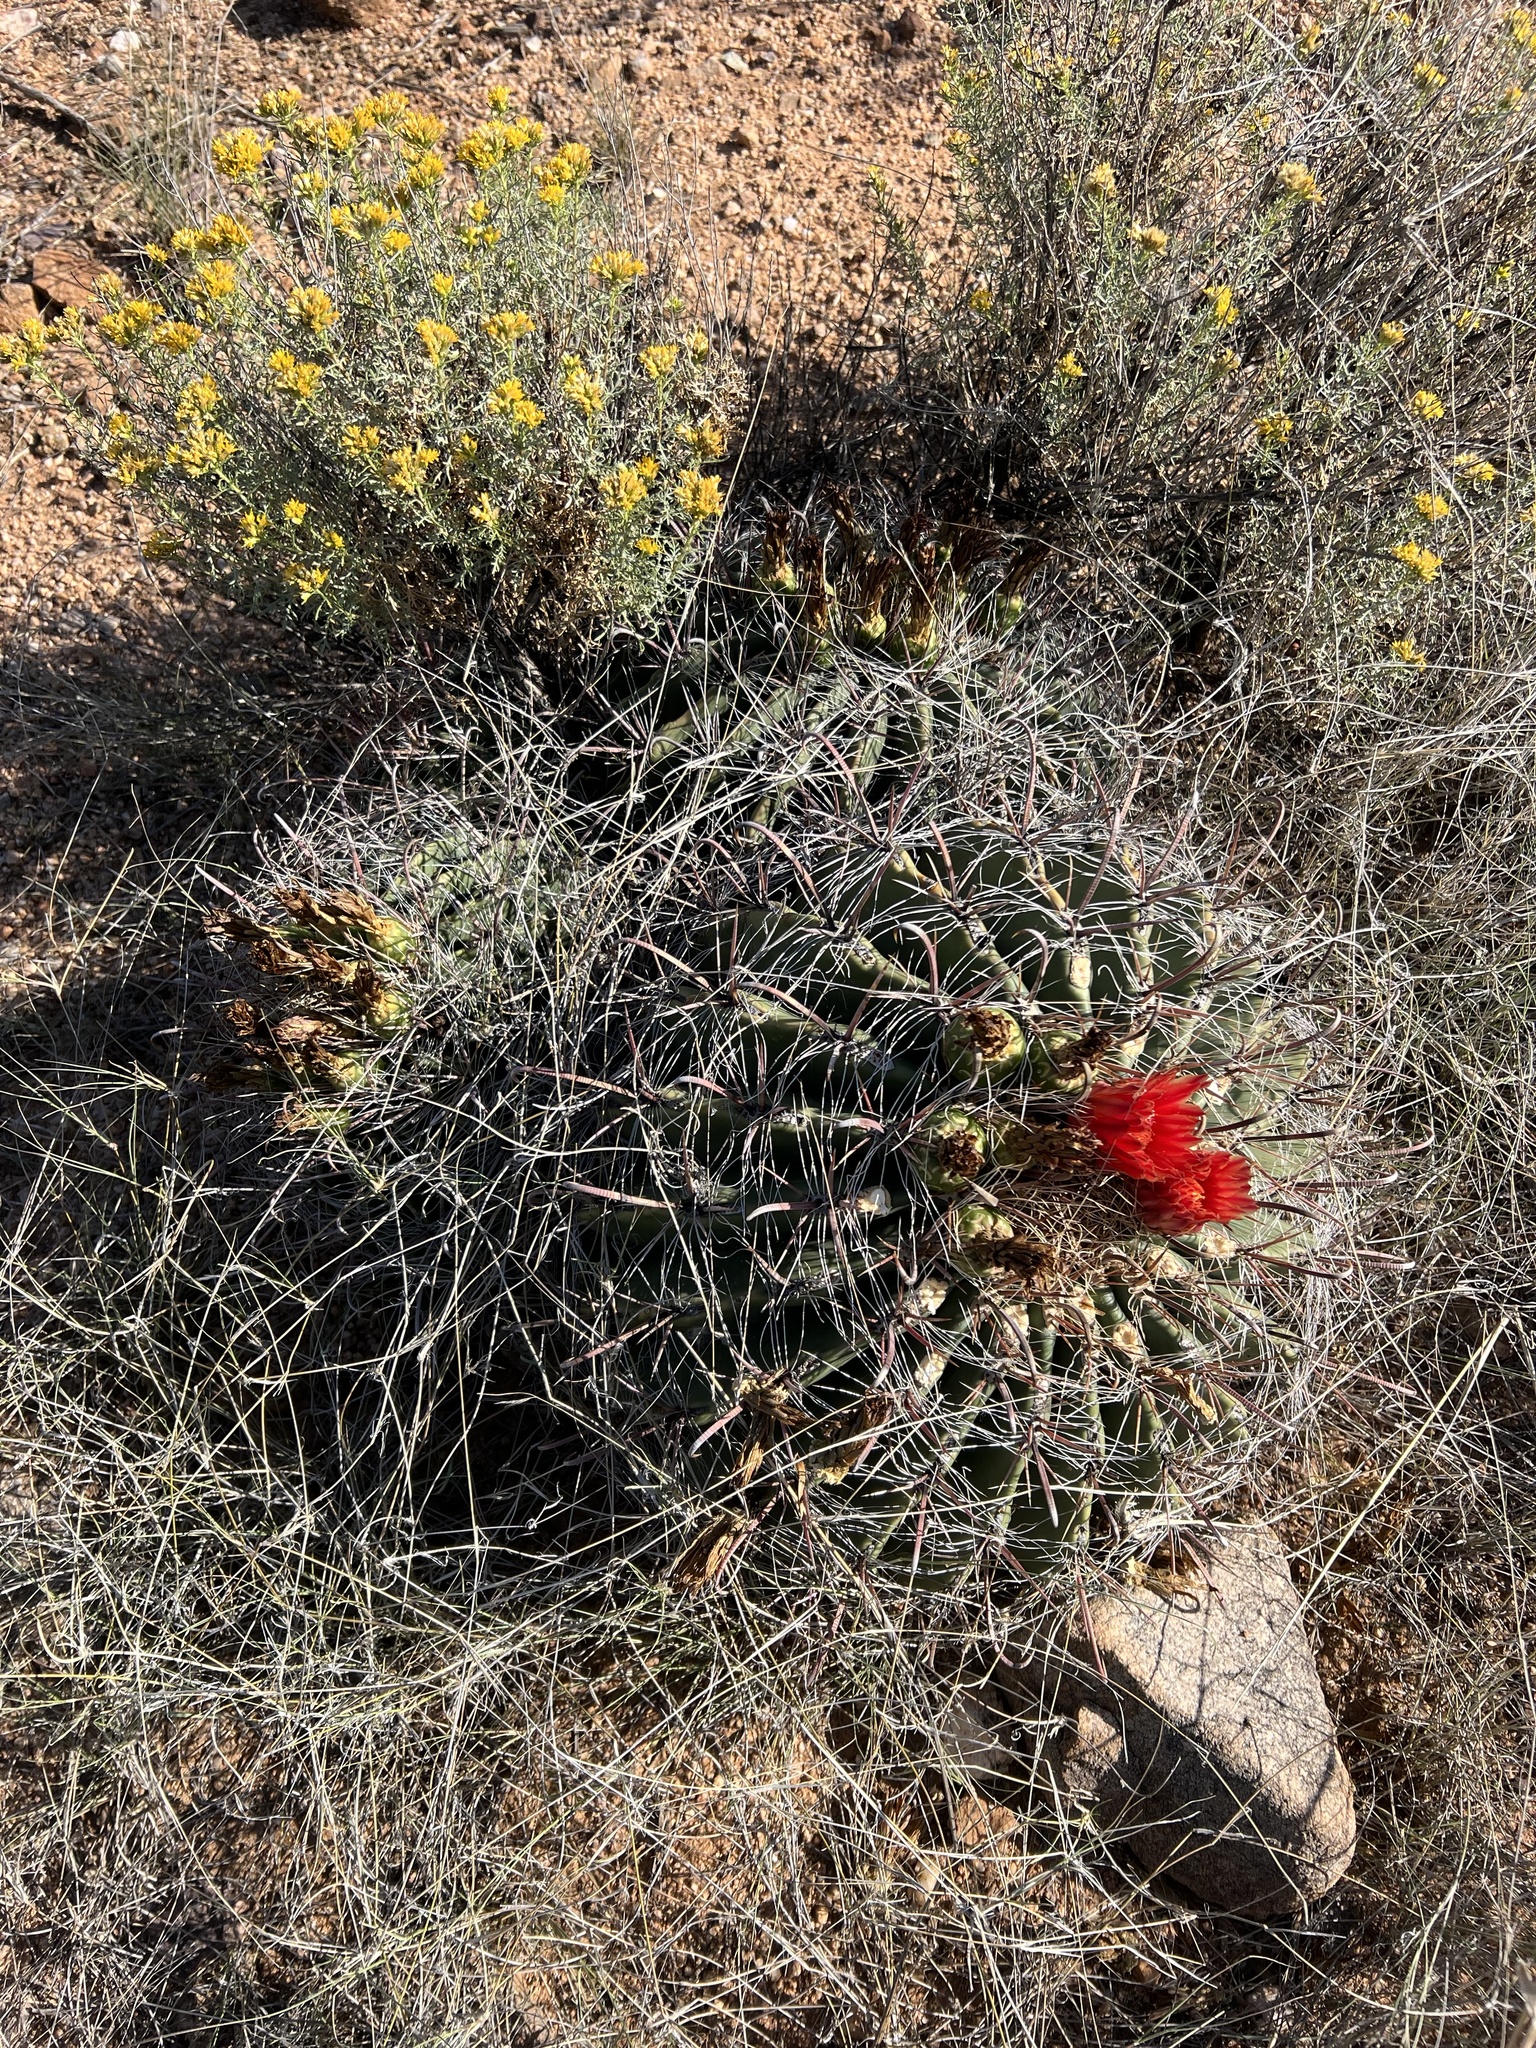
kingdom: Plantae
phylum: Tracheophyta
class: Magnoliopsida
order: Caryophyllales
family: Cactaceae
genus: Ferocactus
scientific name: Ferocactus wislizeni
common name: Candy barrel cactus
